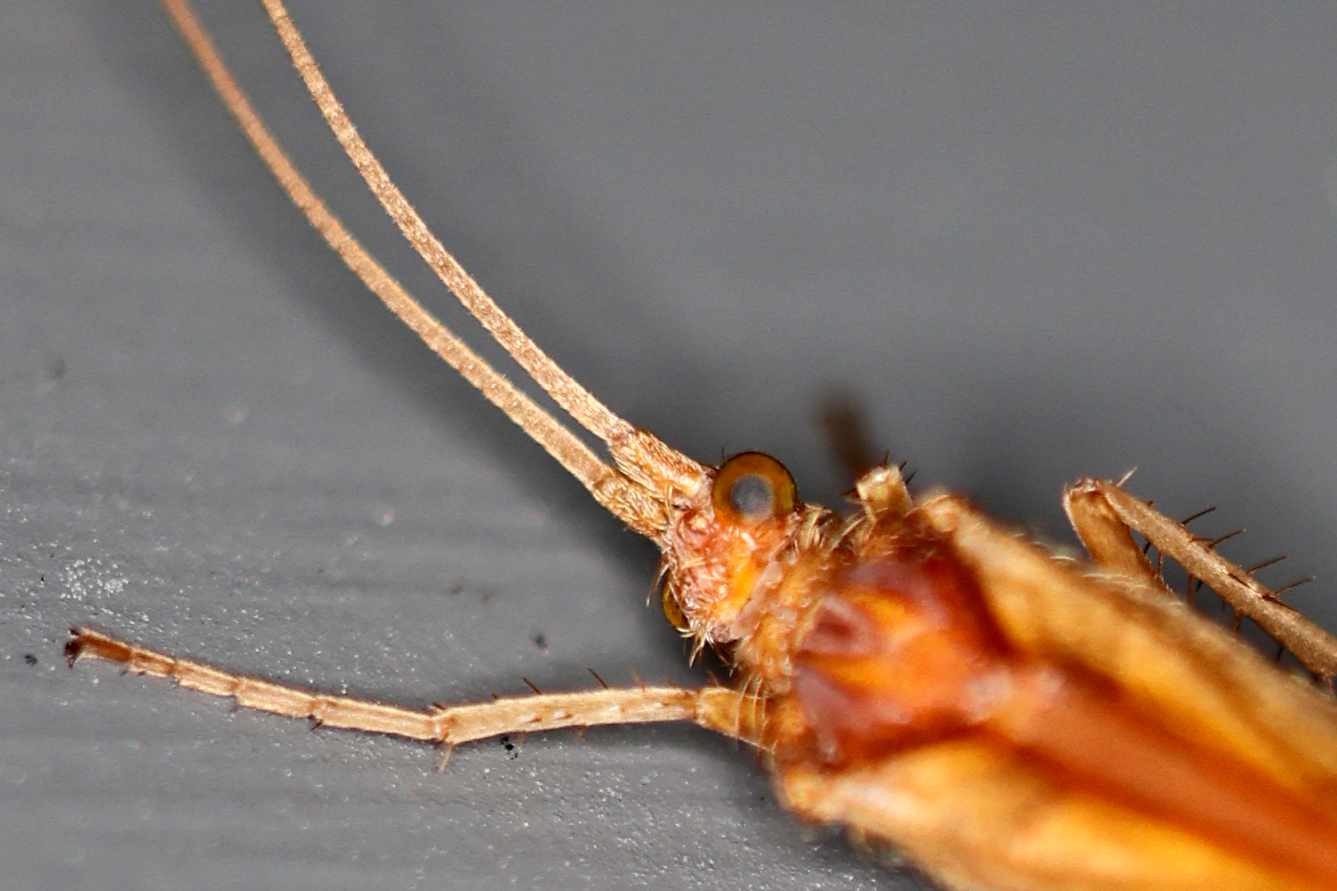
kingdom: Animalia
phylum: Arthropoda
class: Insecta
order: Trichoptera
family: Limnephilidae
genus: Limnephilus
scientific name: Limnephilus rhombicus
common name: Diamond northern caddisfly
